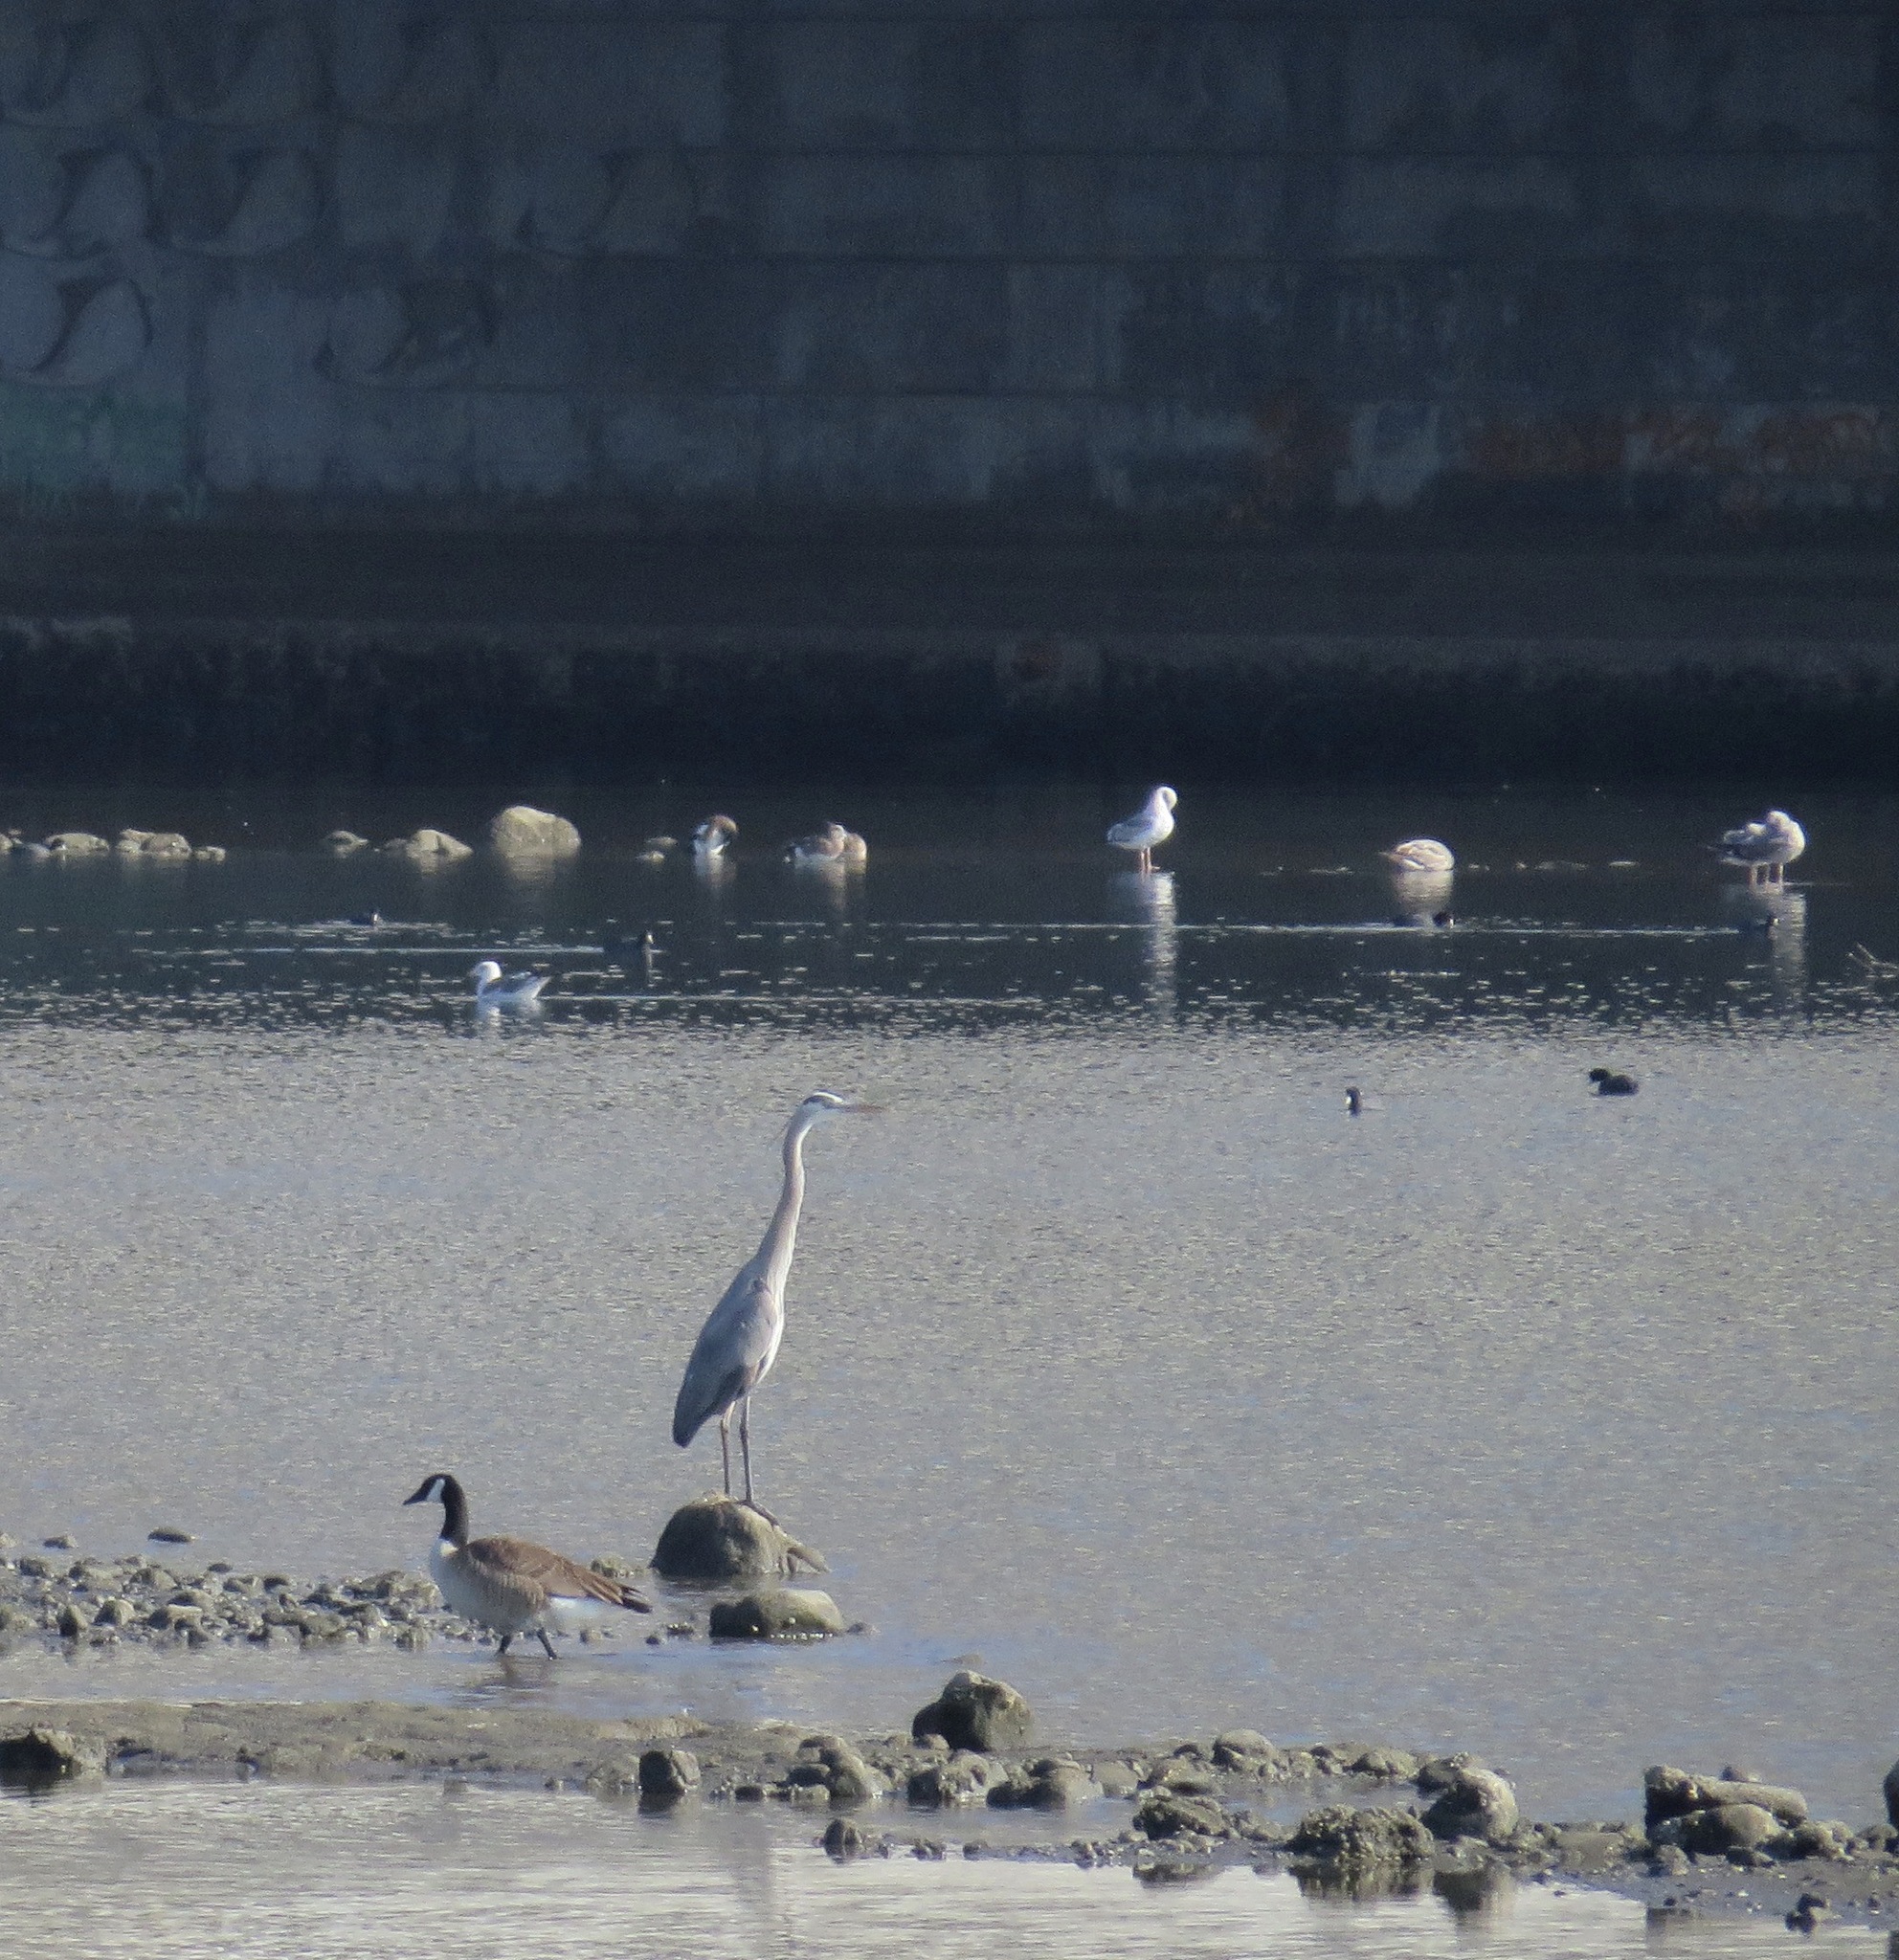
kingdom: Animalia
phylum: Chordata
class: Aves
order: Pelecaniformes
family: Ardeidae
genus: Ardea
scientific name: Ardea herodias
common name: Great blue heron
